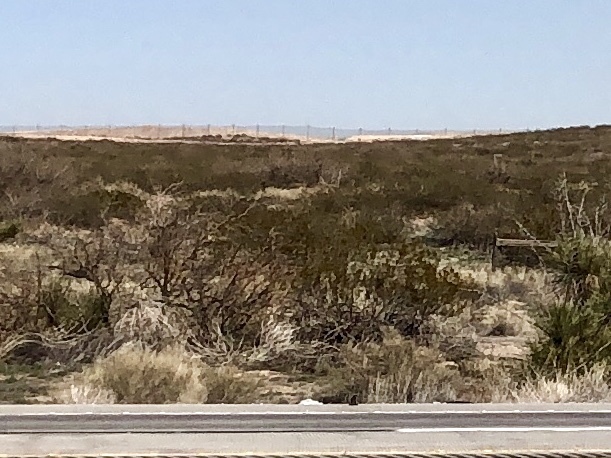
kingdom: Plantae
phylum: Tracheophyta
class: Magnoliopsida
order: Zygophyllales
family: Zygophyllaceae
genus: Larrea
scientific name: Larrea tridentata
